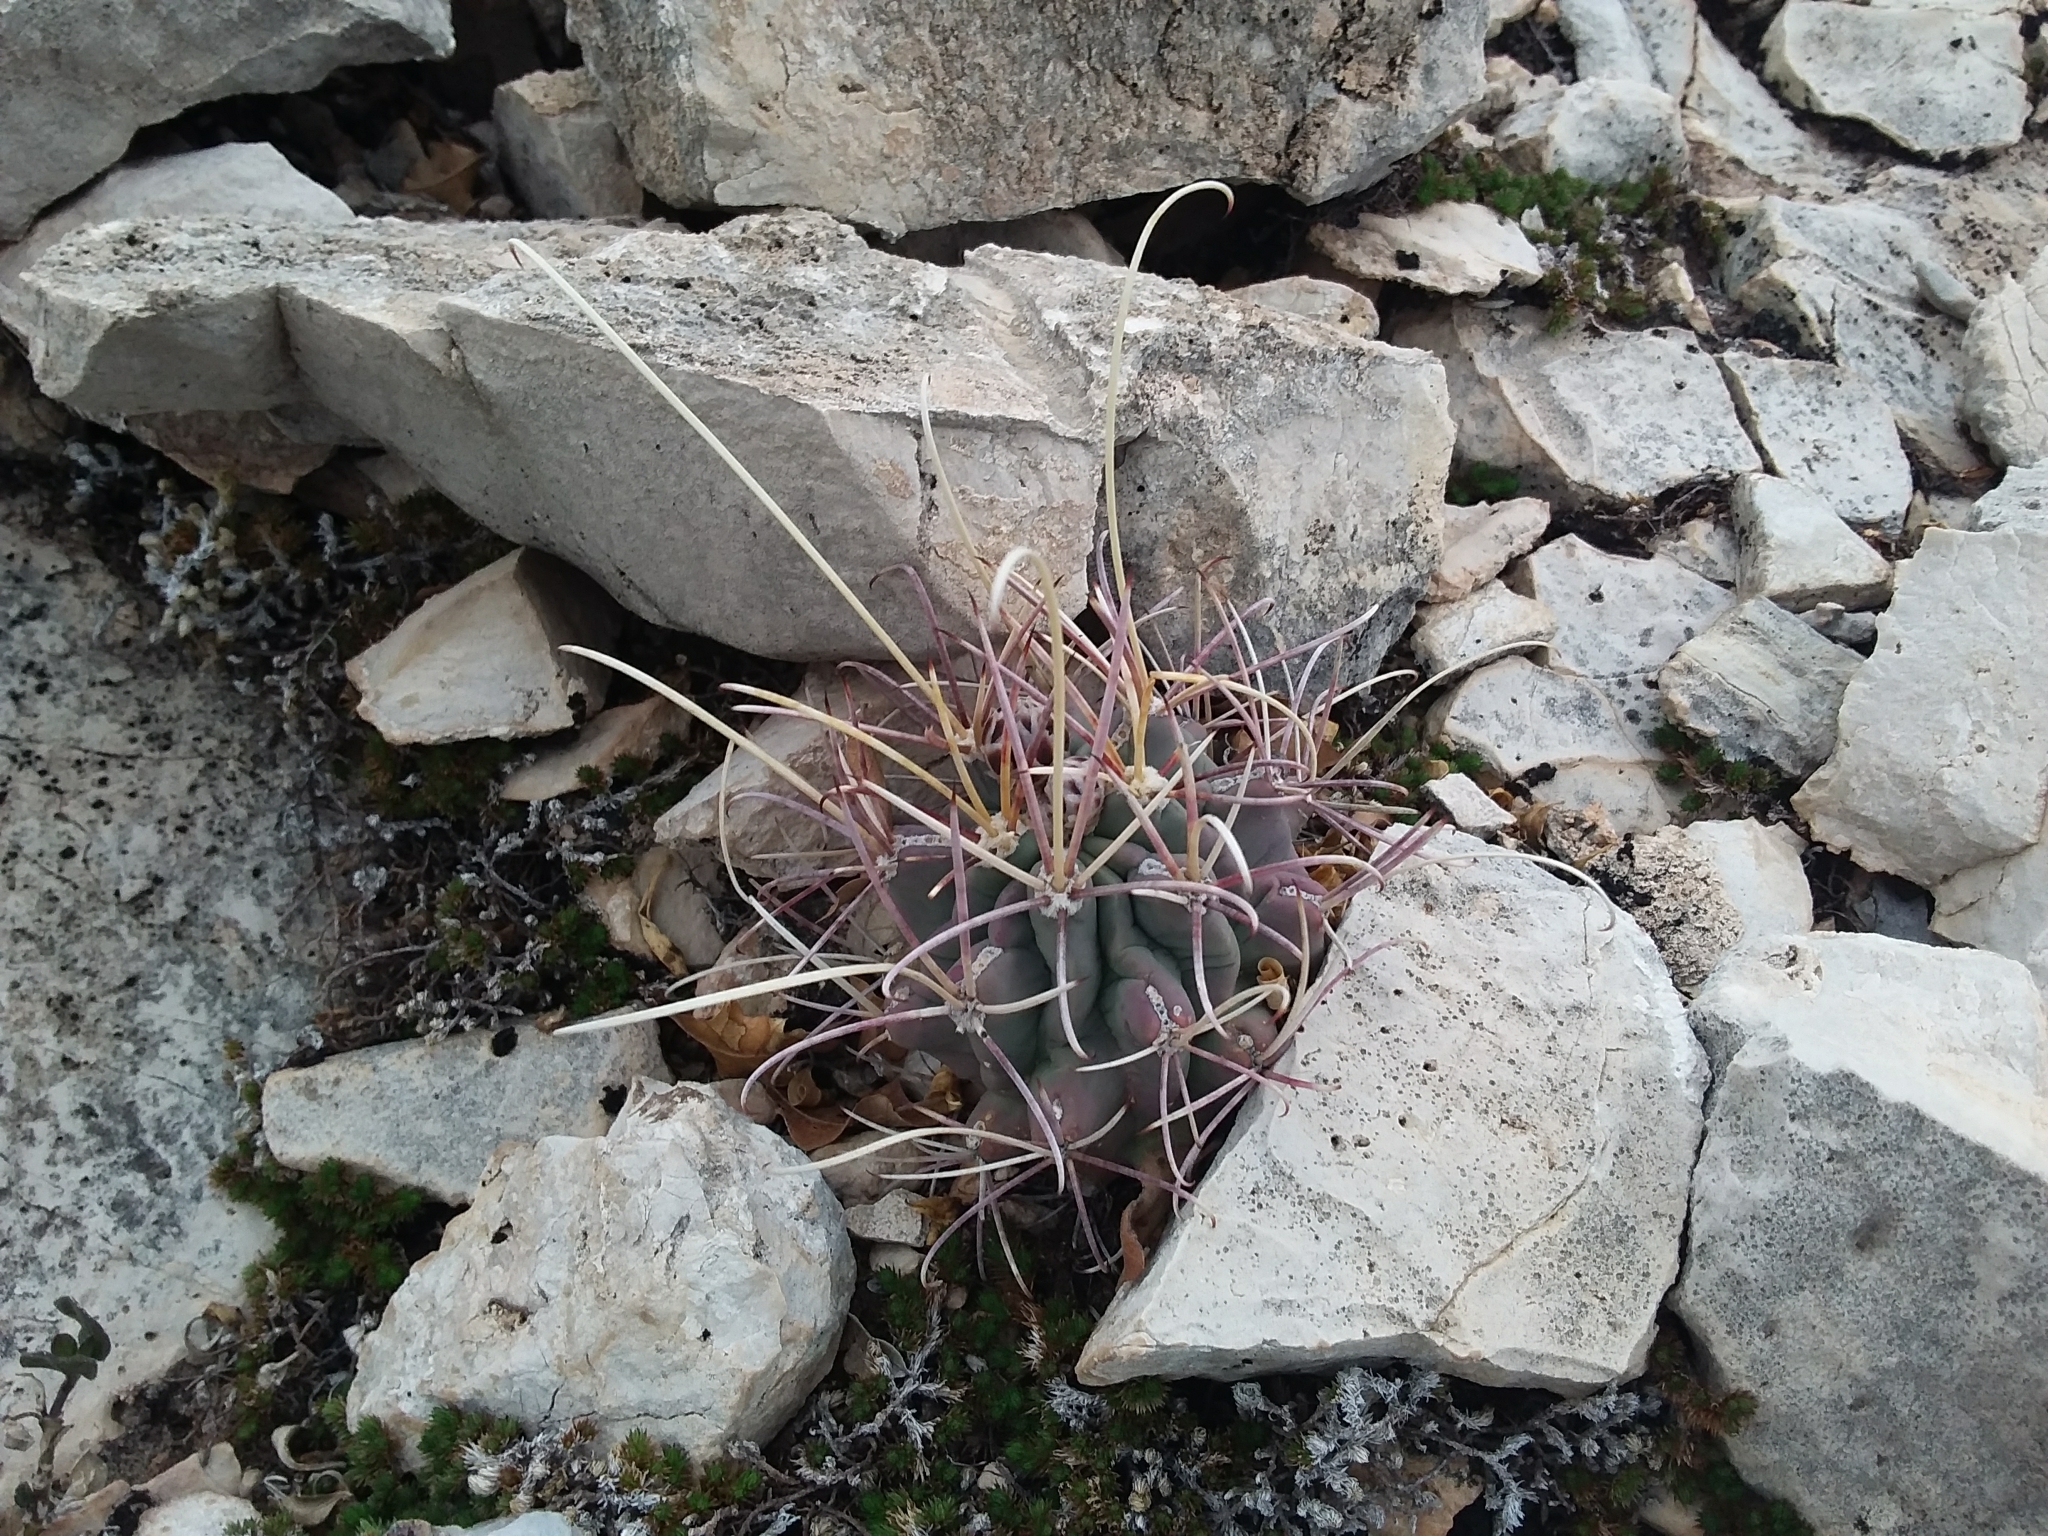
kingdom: Plantae
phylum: Tracheophyta
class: Magnoliopsida
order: Caryophyllales
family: Cactaceae
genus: Ferocactus
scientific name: Ferocactus uncinatus
